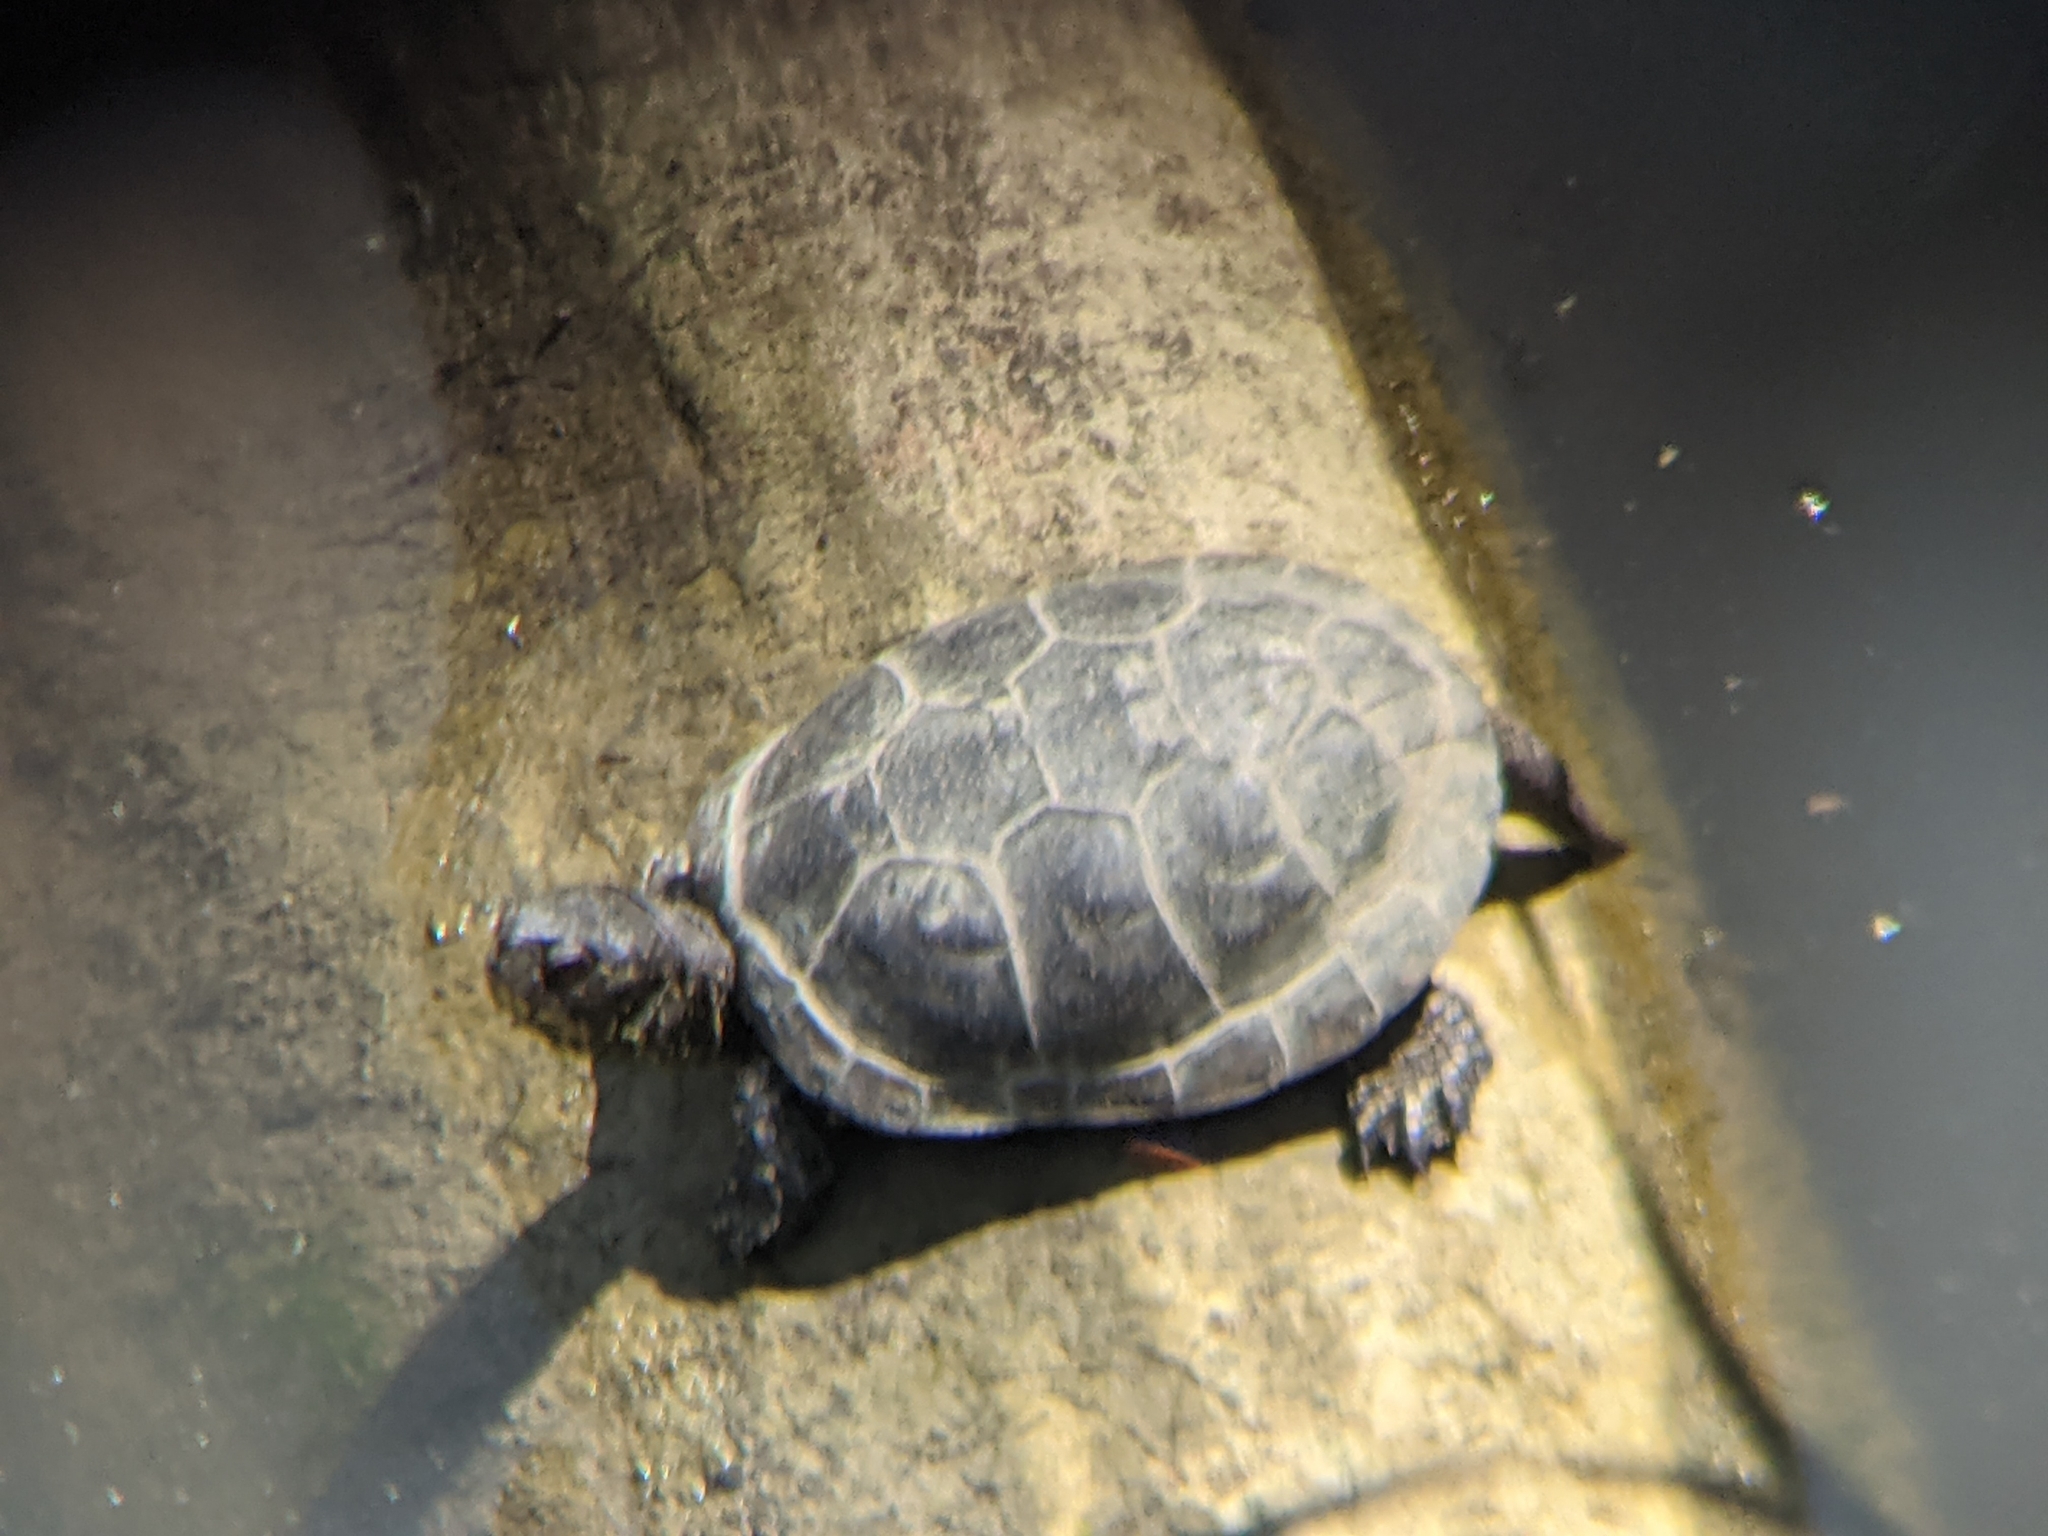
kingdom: Animalia
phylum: Chordata
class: Testudines
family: Emydidae
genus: Emys
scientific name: Emys orbicularis
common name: European pond turtle
